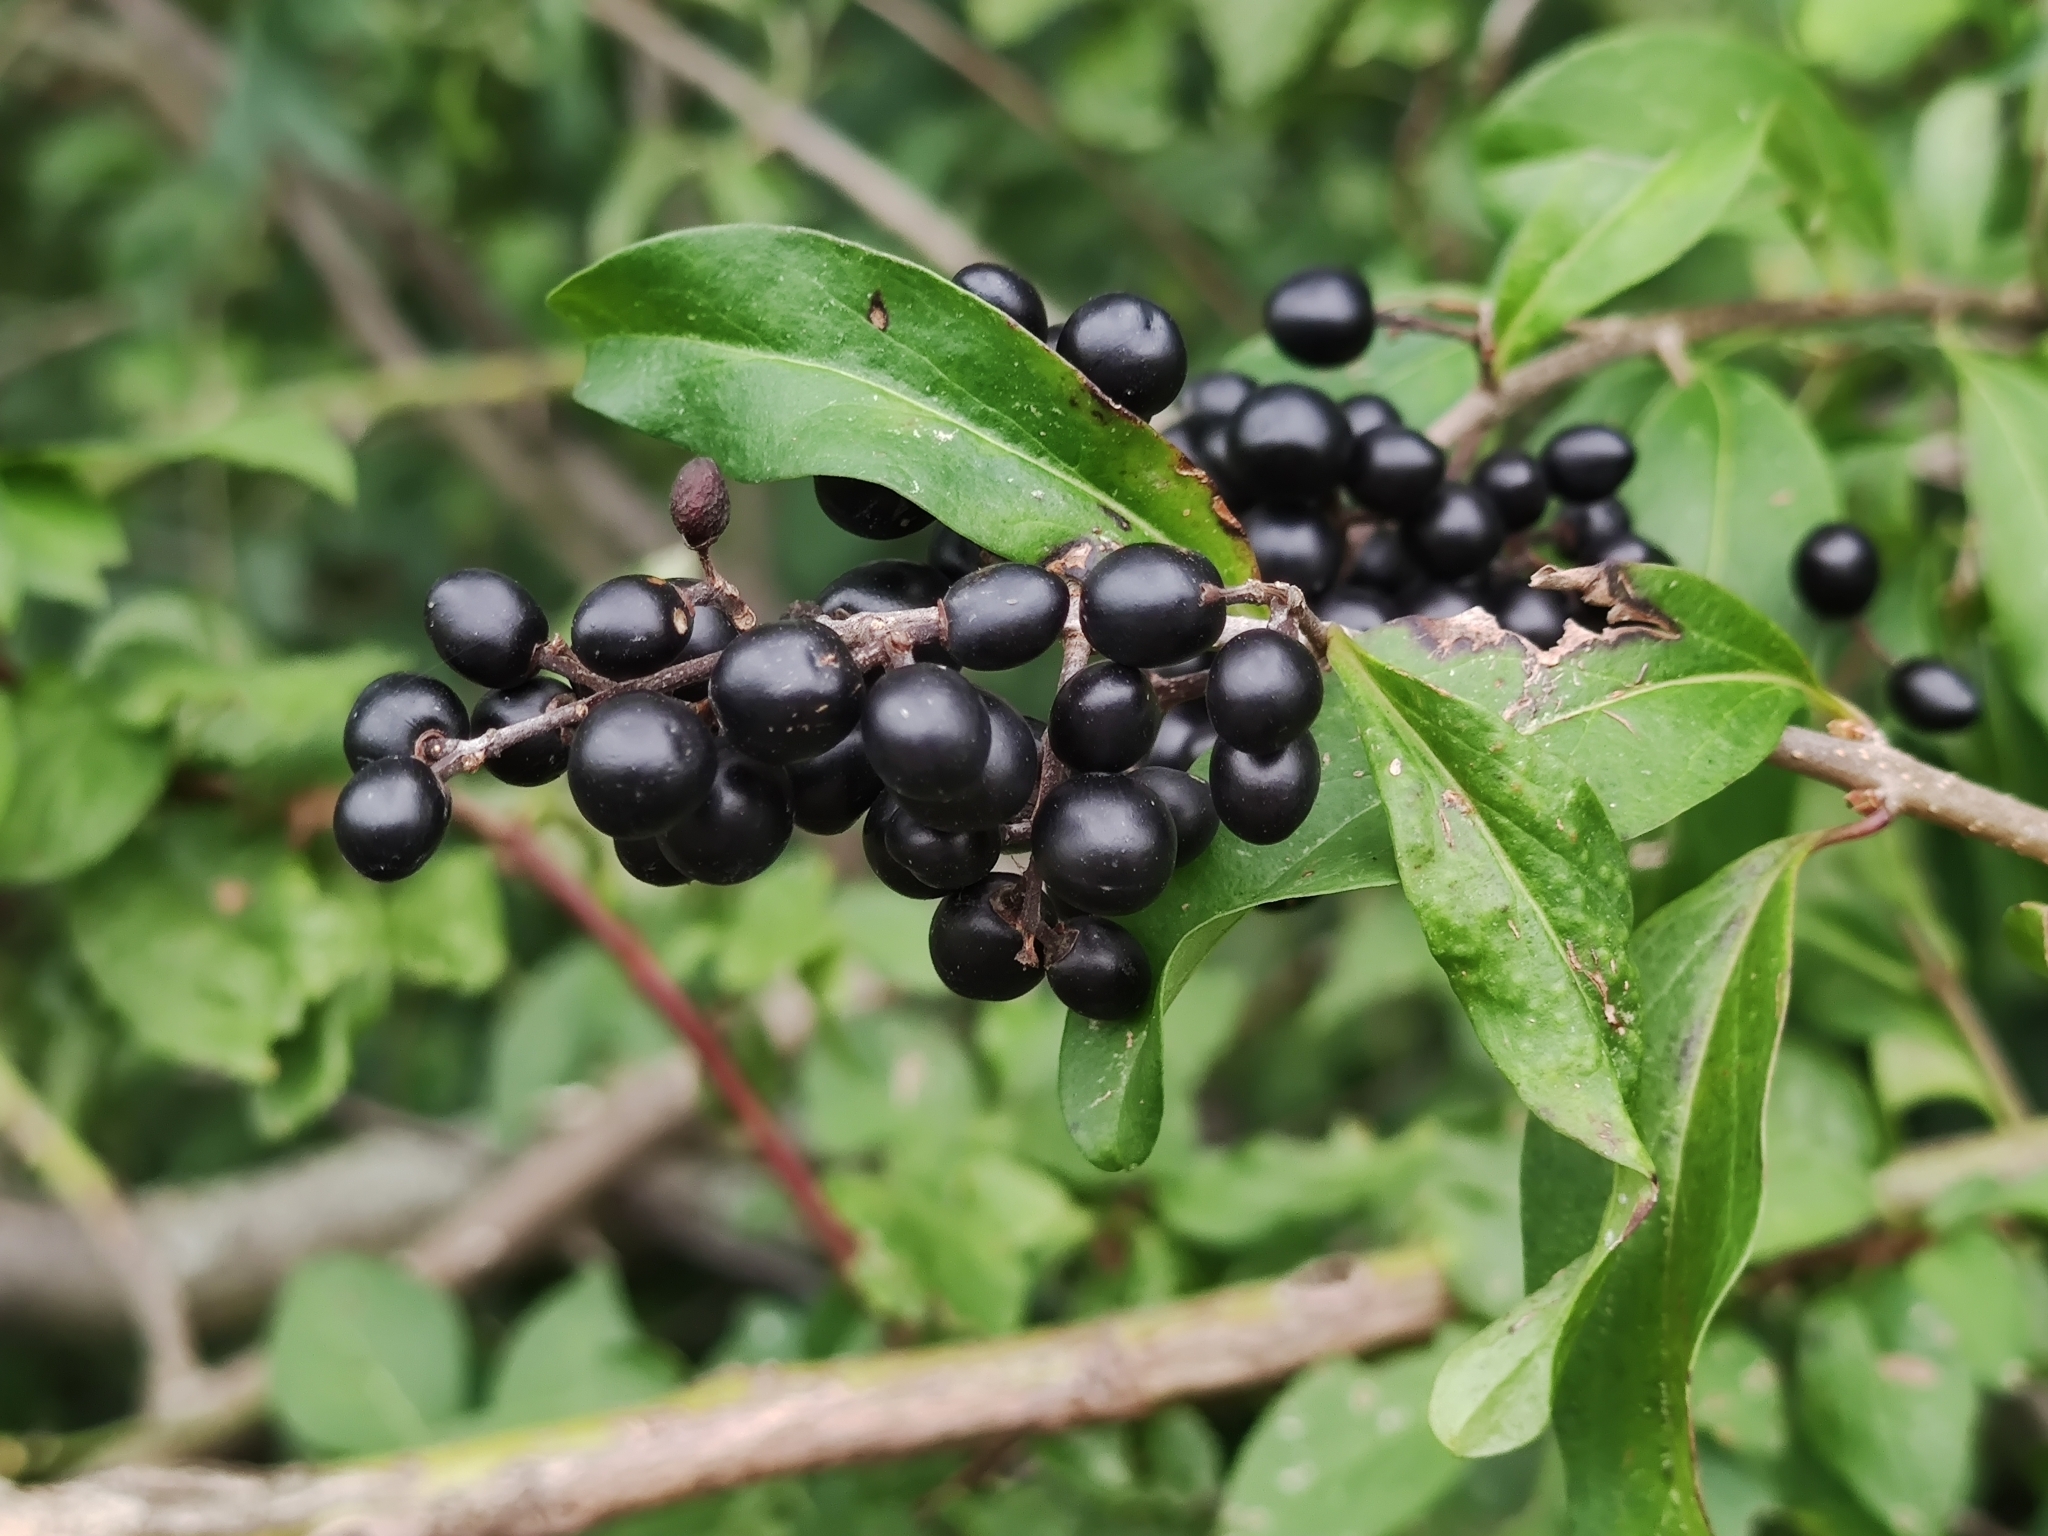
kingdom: Plantae
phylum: Tracheophyta
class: Magnoliopsida
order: Lamiales
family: Oleaceae
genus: Ligustrum
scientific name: Ligustrum vulgare
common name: Wild privet
